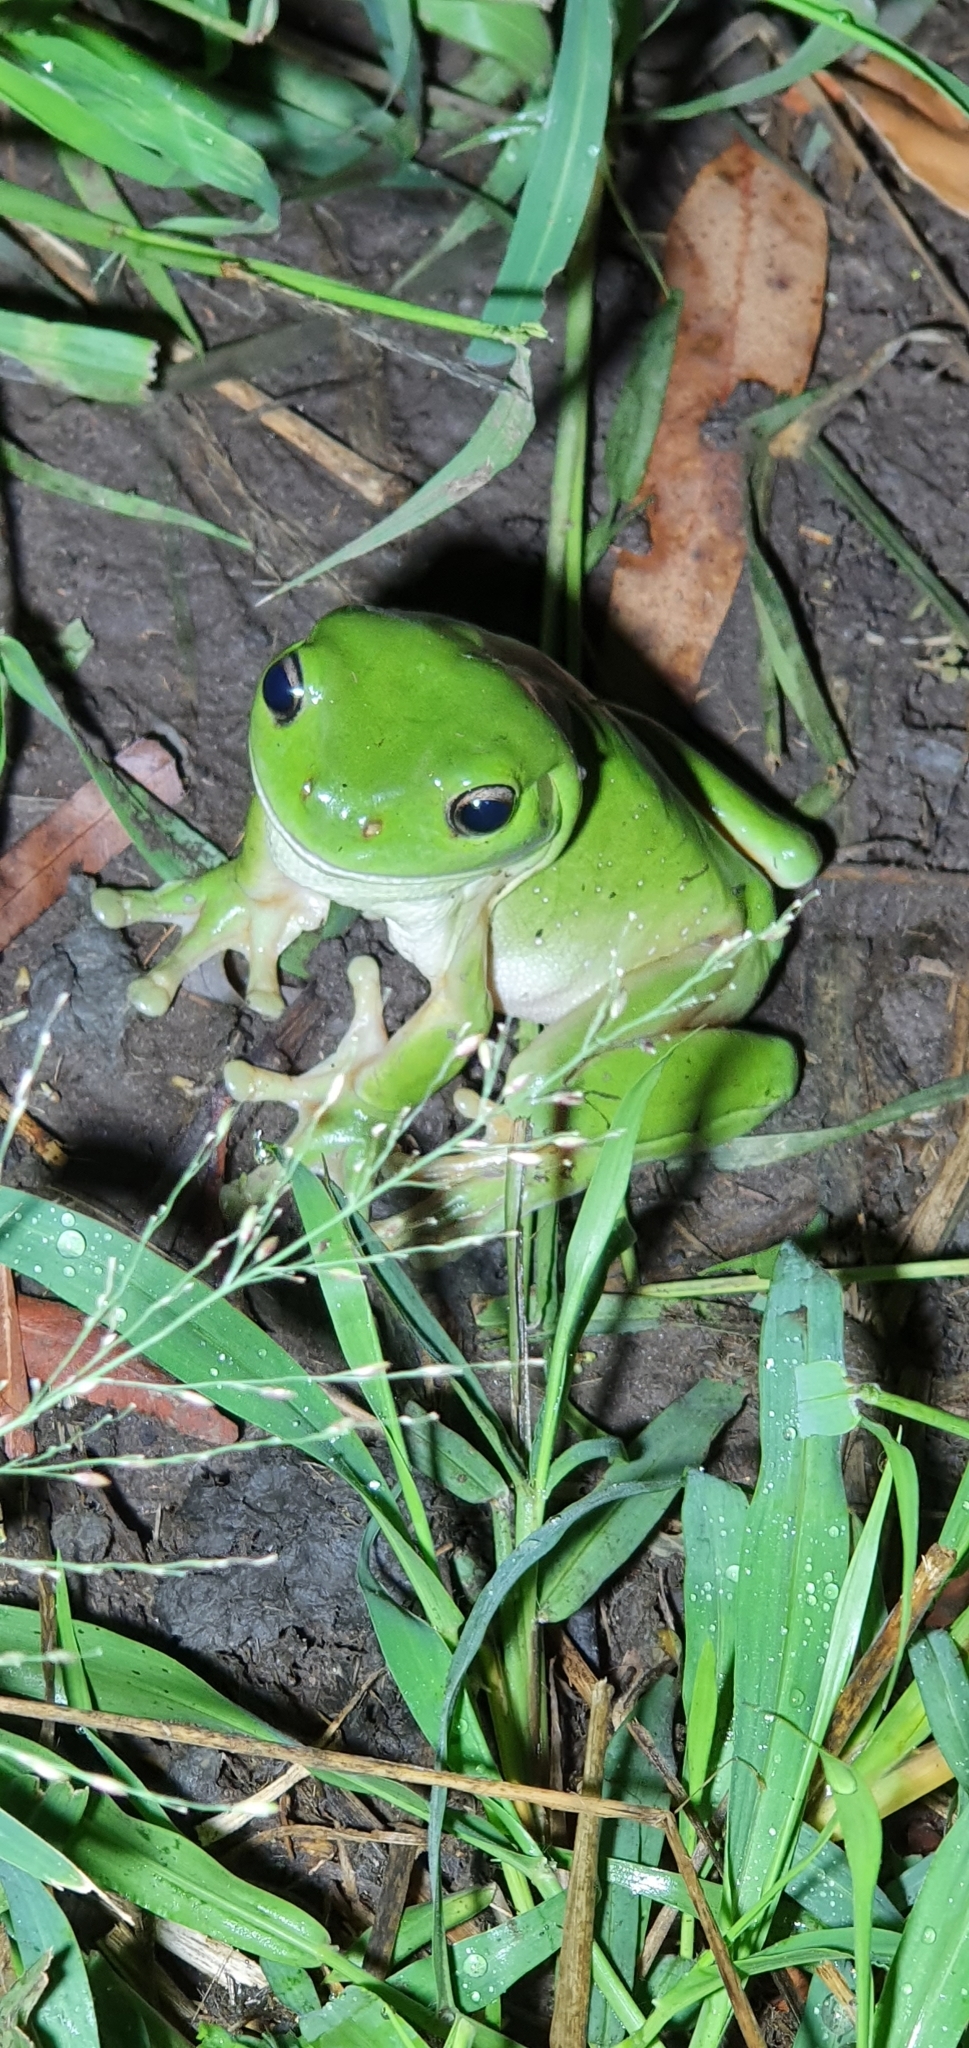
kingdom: Animalia
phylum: Chordata
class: Amphibia
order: Anura
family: Pelodryadidae
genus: Ranoidea
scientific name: Ranoidea caerulea
